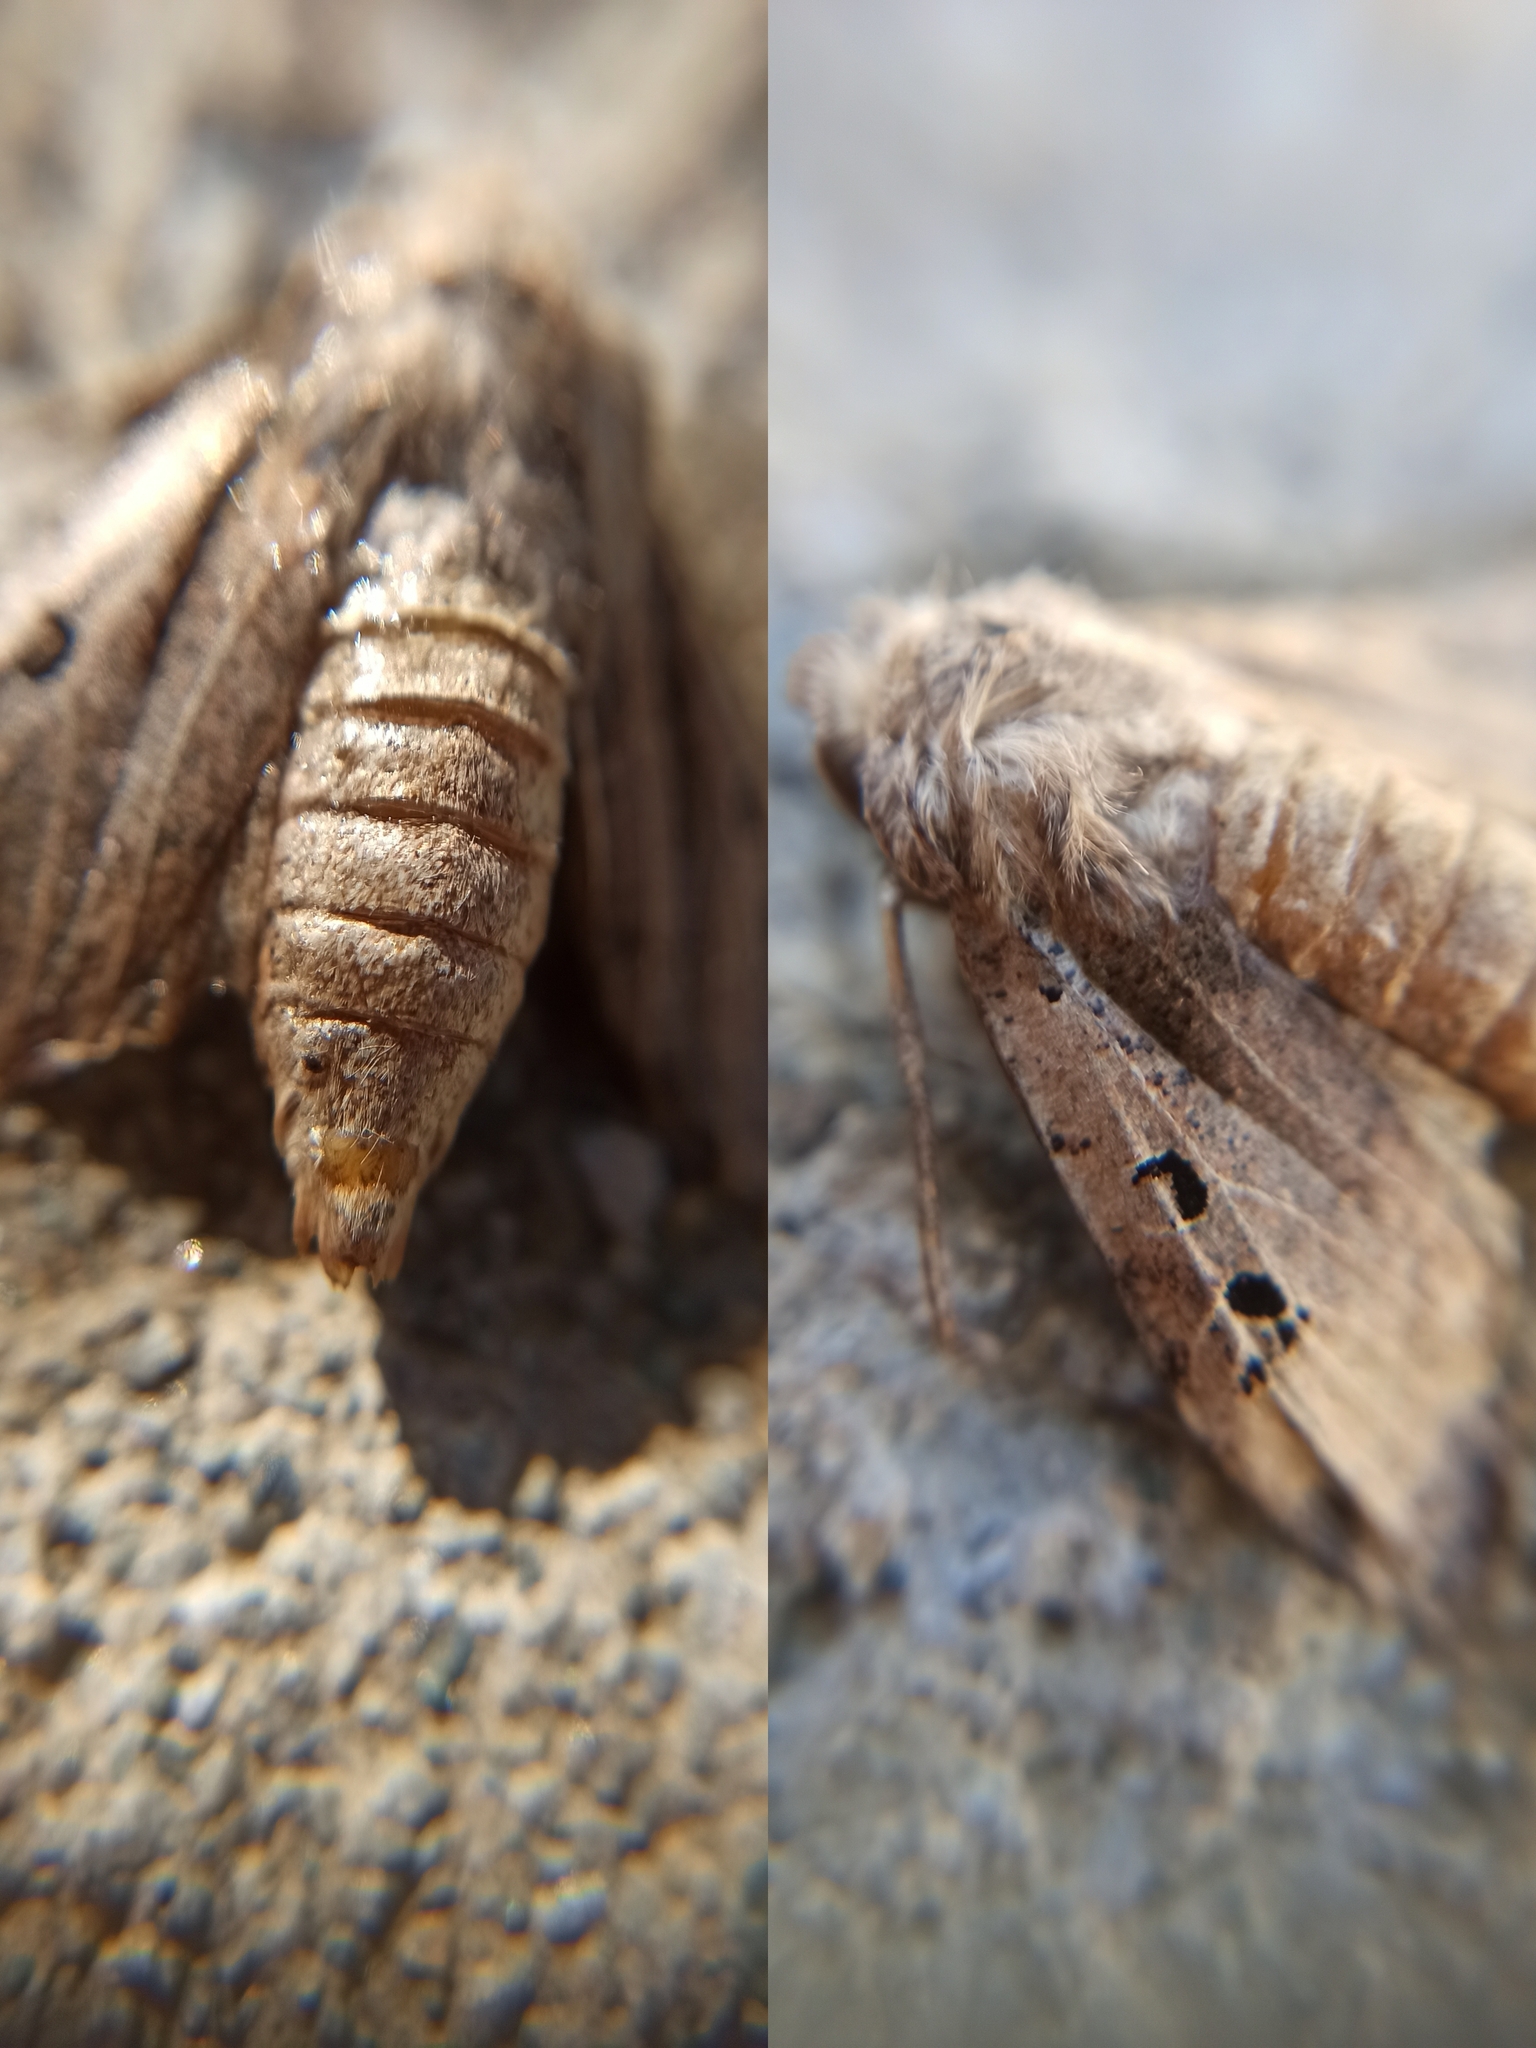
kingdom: Animalia
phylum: Arthropoda
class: Insecta
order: Lepidoptera
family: Noctuidae
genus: Conistra
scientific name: Conistra rubiginosa
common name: Black-spotted chestnut
